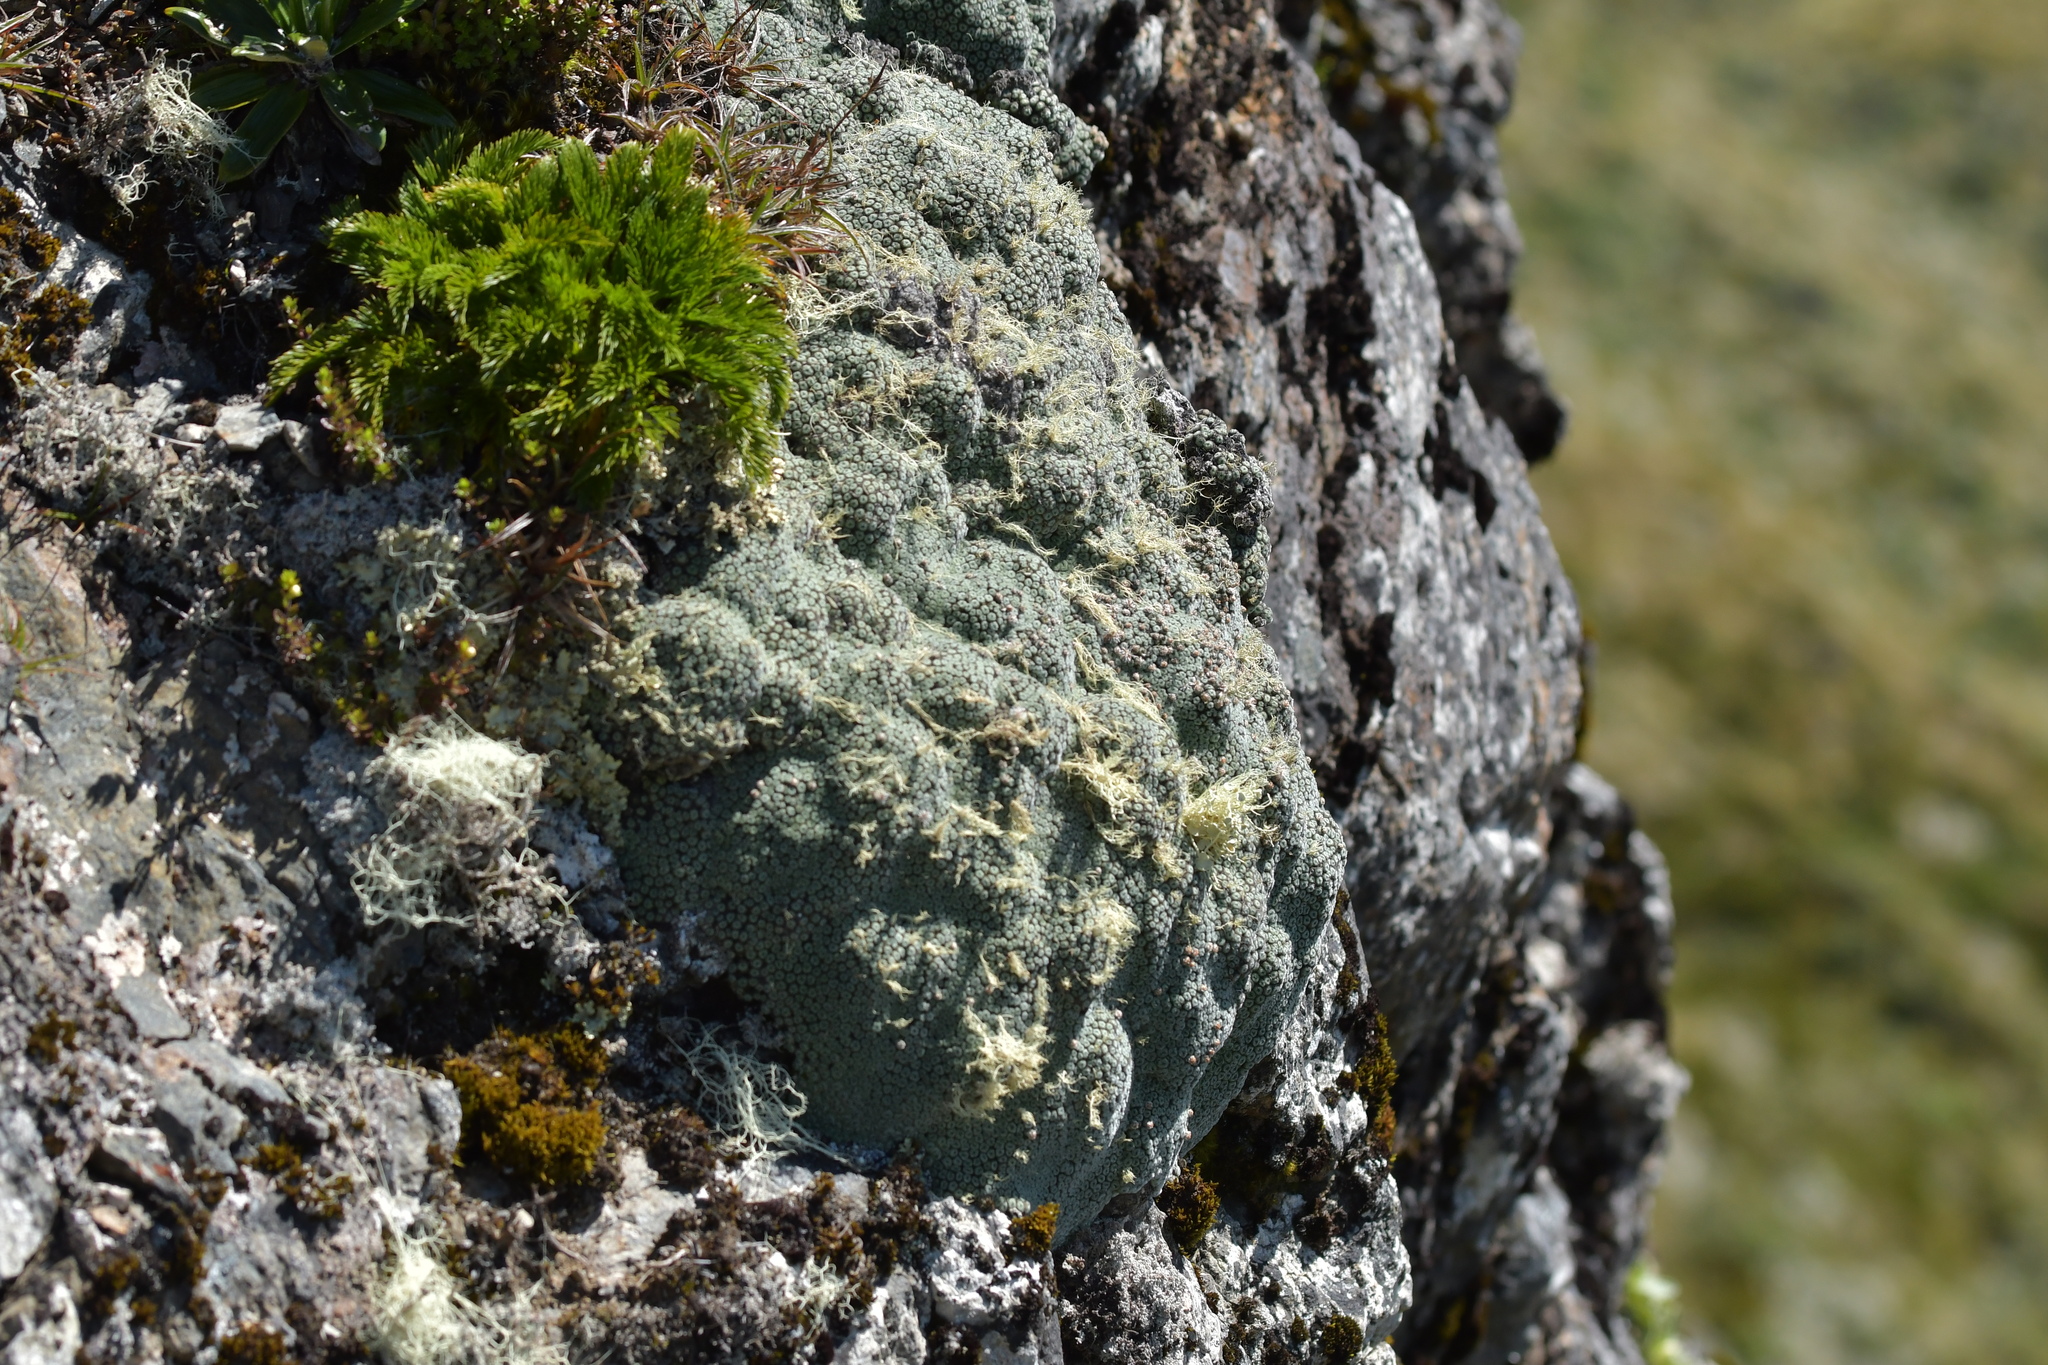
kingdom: Plantae
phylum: Tracheophyta
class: Magnoliopsida
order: Asterales
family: Asteraceae
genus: Raoulia
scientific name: Raoulia rubra
